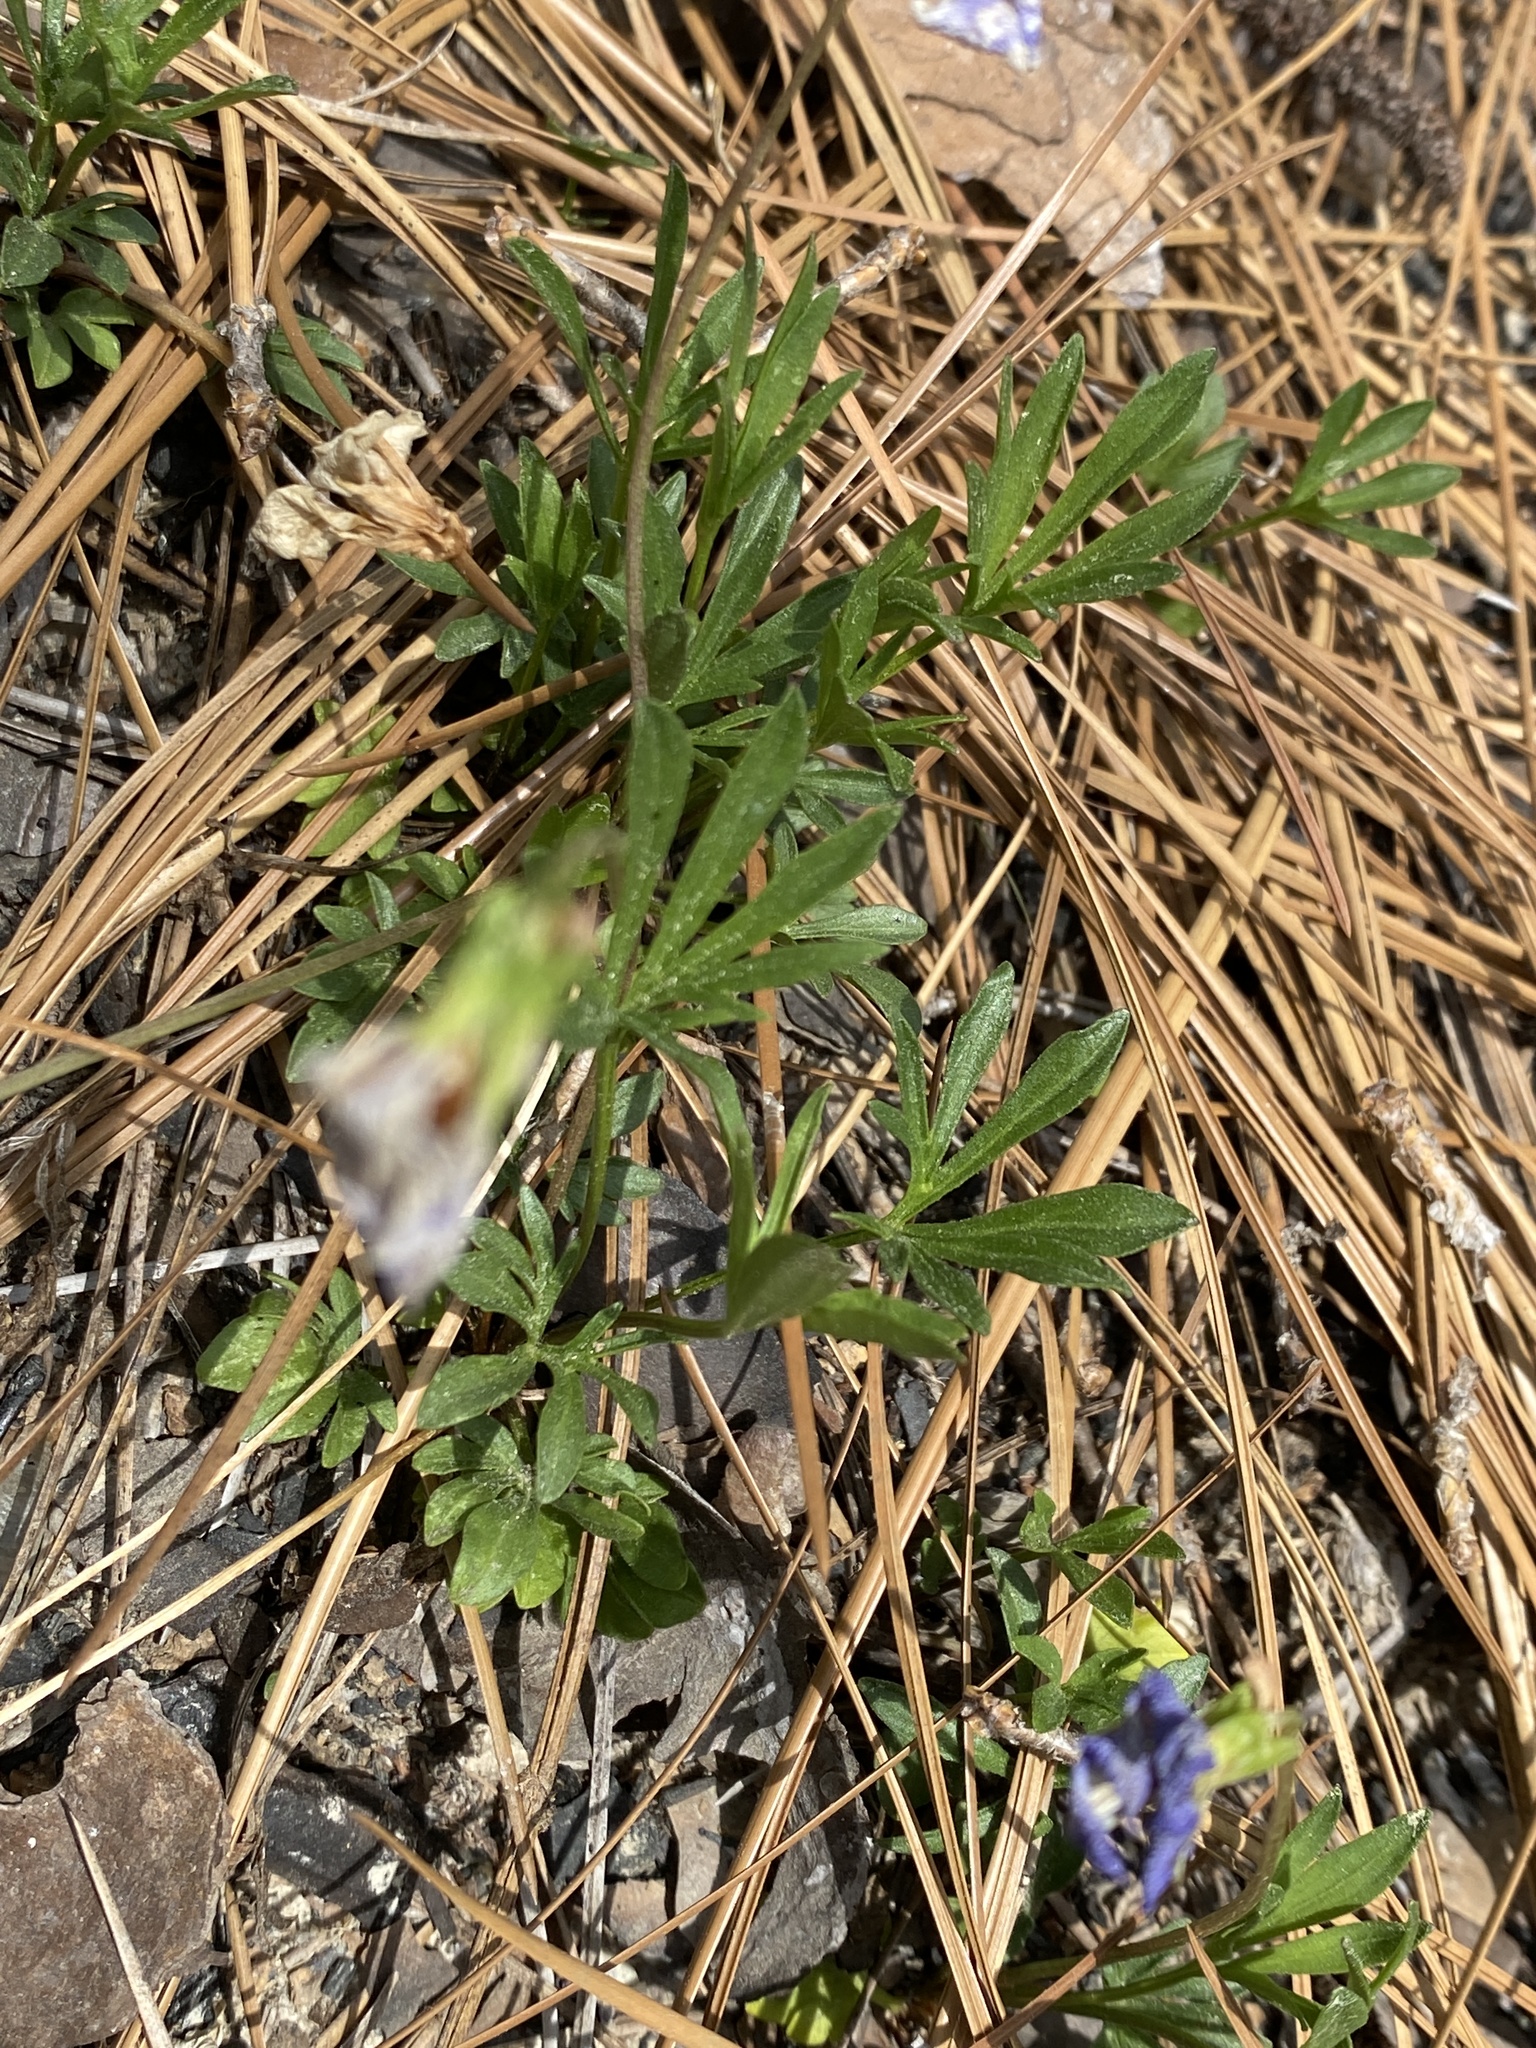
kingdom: Plantae
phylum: Tracheophyta
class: Magnoliopsida
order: Malpighiales
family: Violaceae
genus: Viola
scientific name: Viola pedata
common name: Pansy violet
